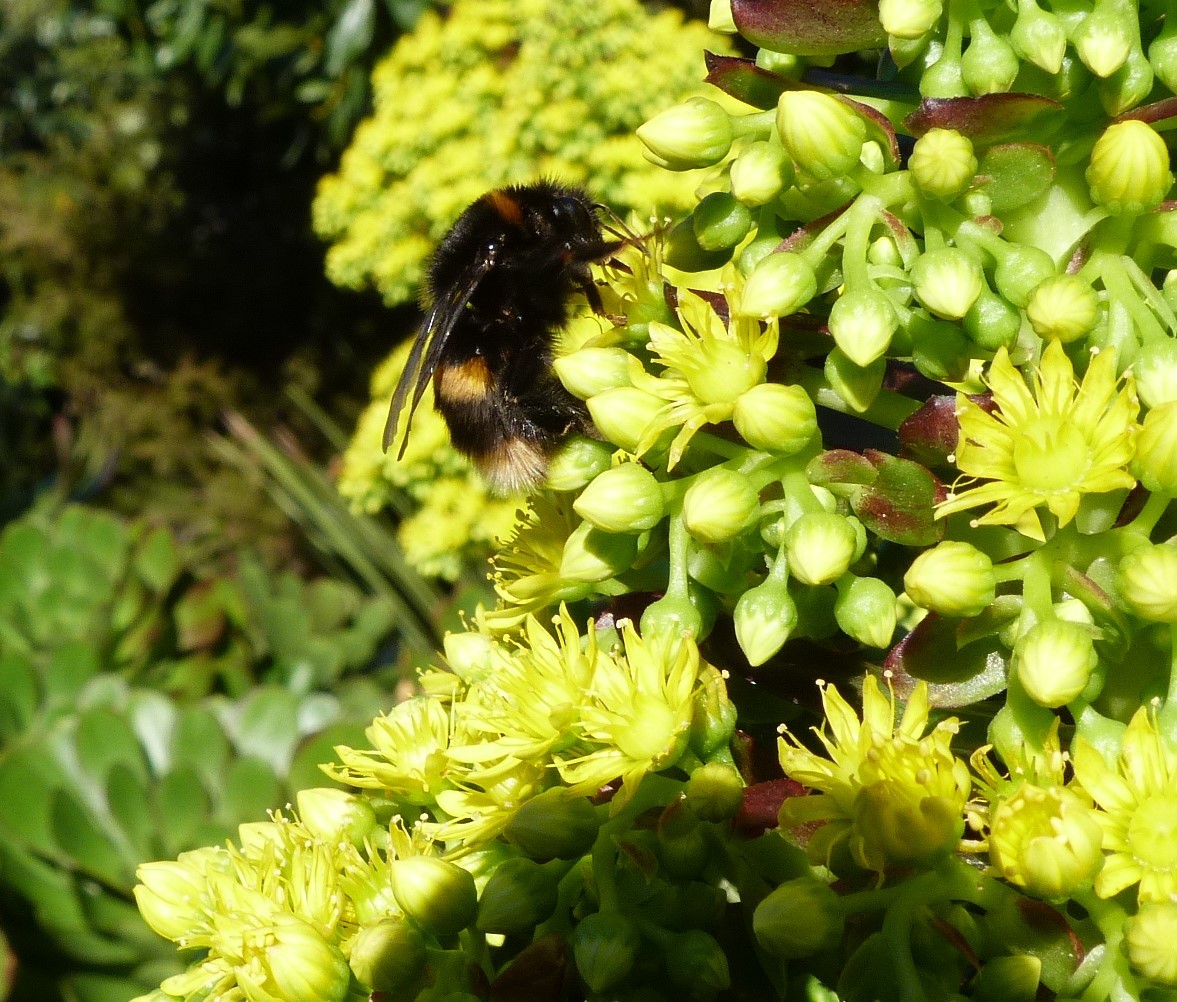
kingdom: Animalia
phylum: Arthropoda
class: Insecta
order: Hymenoptera
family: Apidae
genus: Bombus
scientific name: Bombus terrestris
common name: Buff-tailed bumblebee
